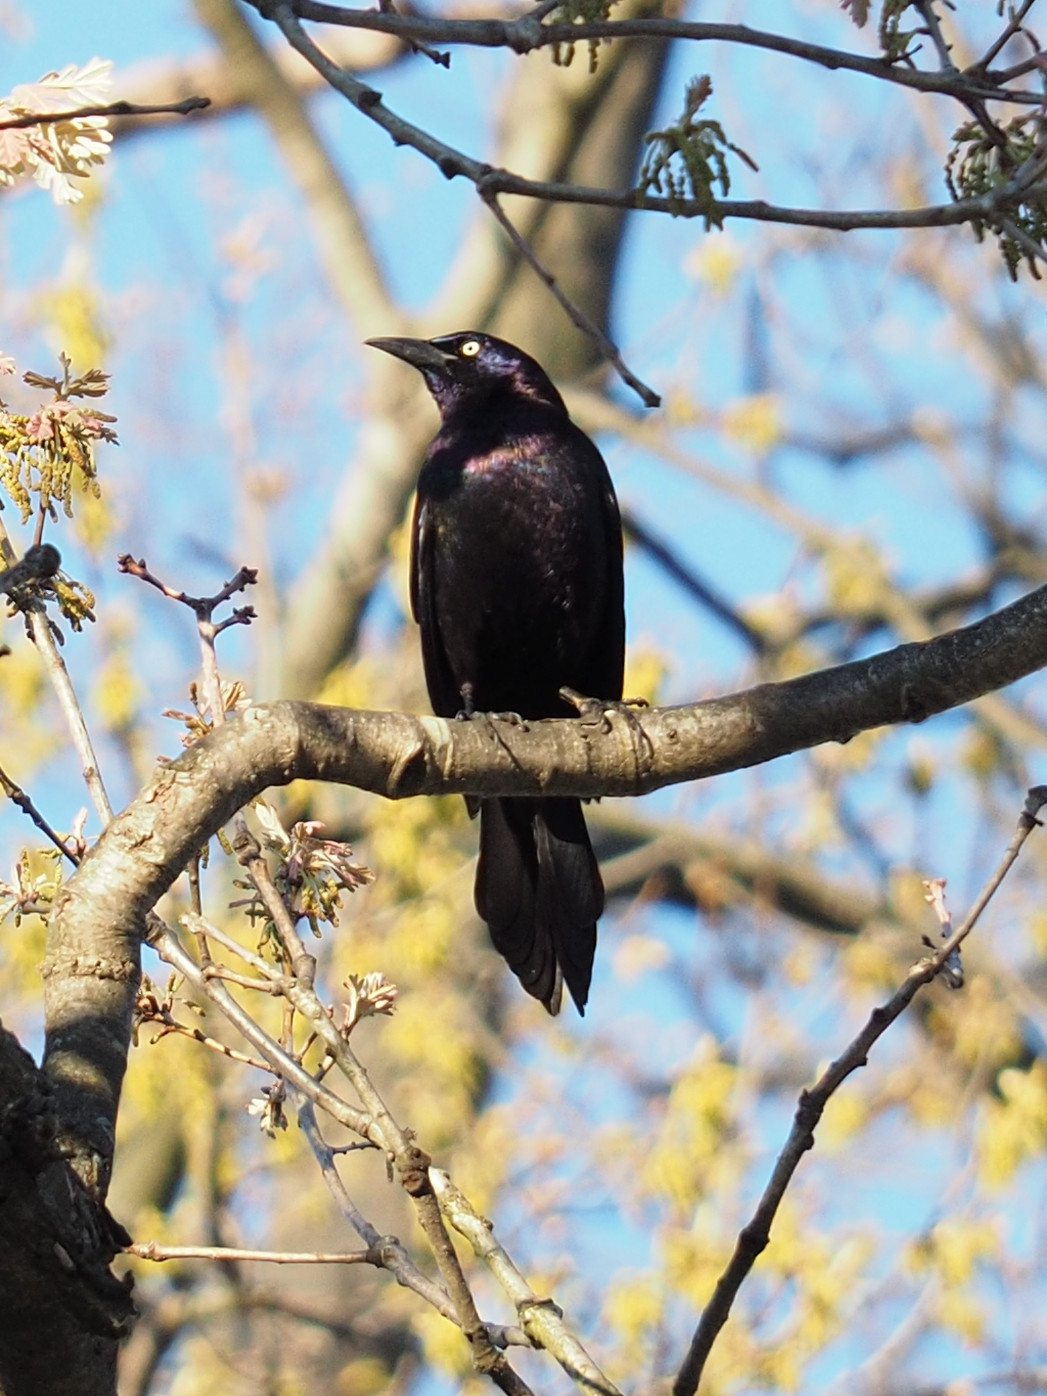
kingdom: Animalia
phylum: Chordata
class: Aves
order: Passeriformes
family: Icteridae
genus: Quiscalus
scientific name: Quiscalus quiscula
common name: Common grackle
